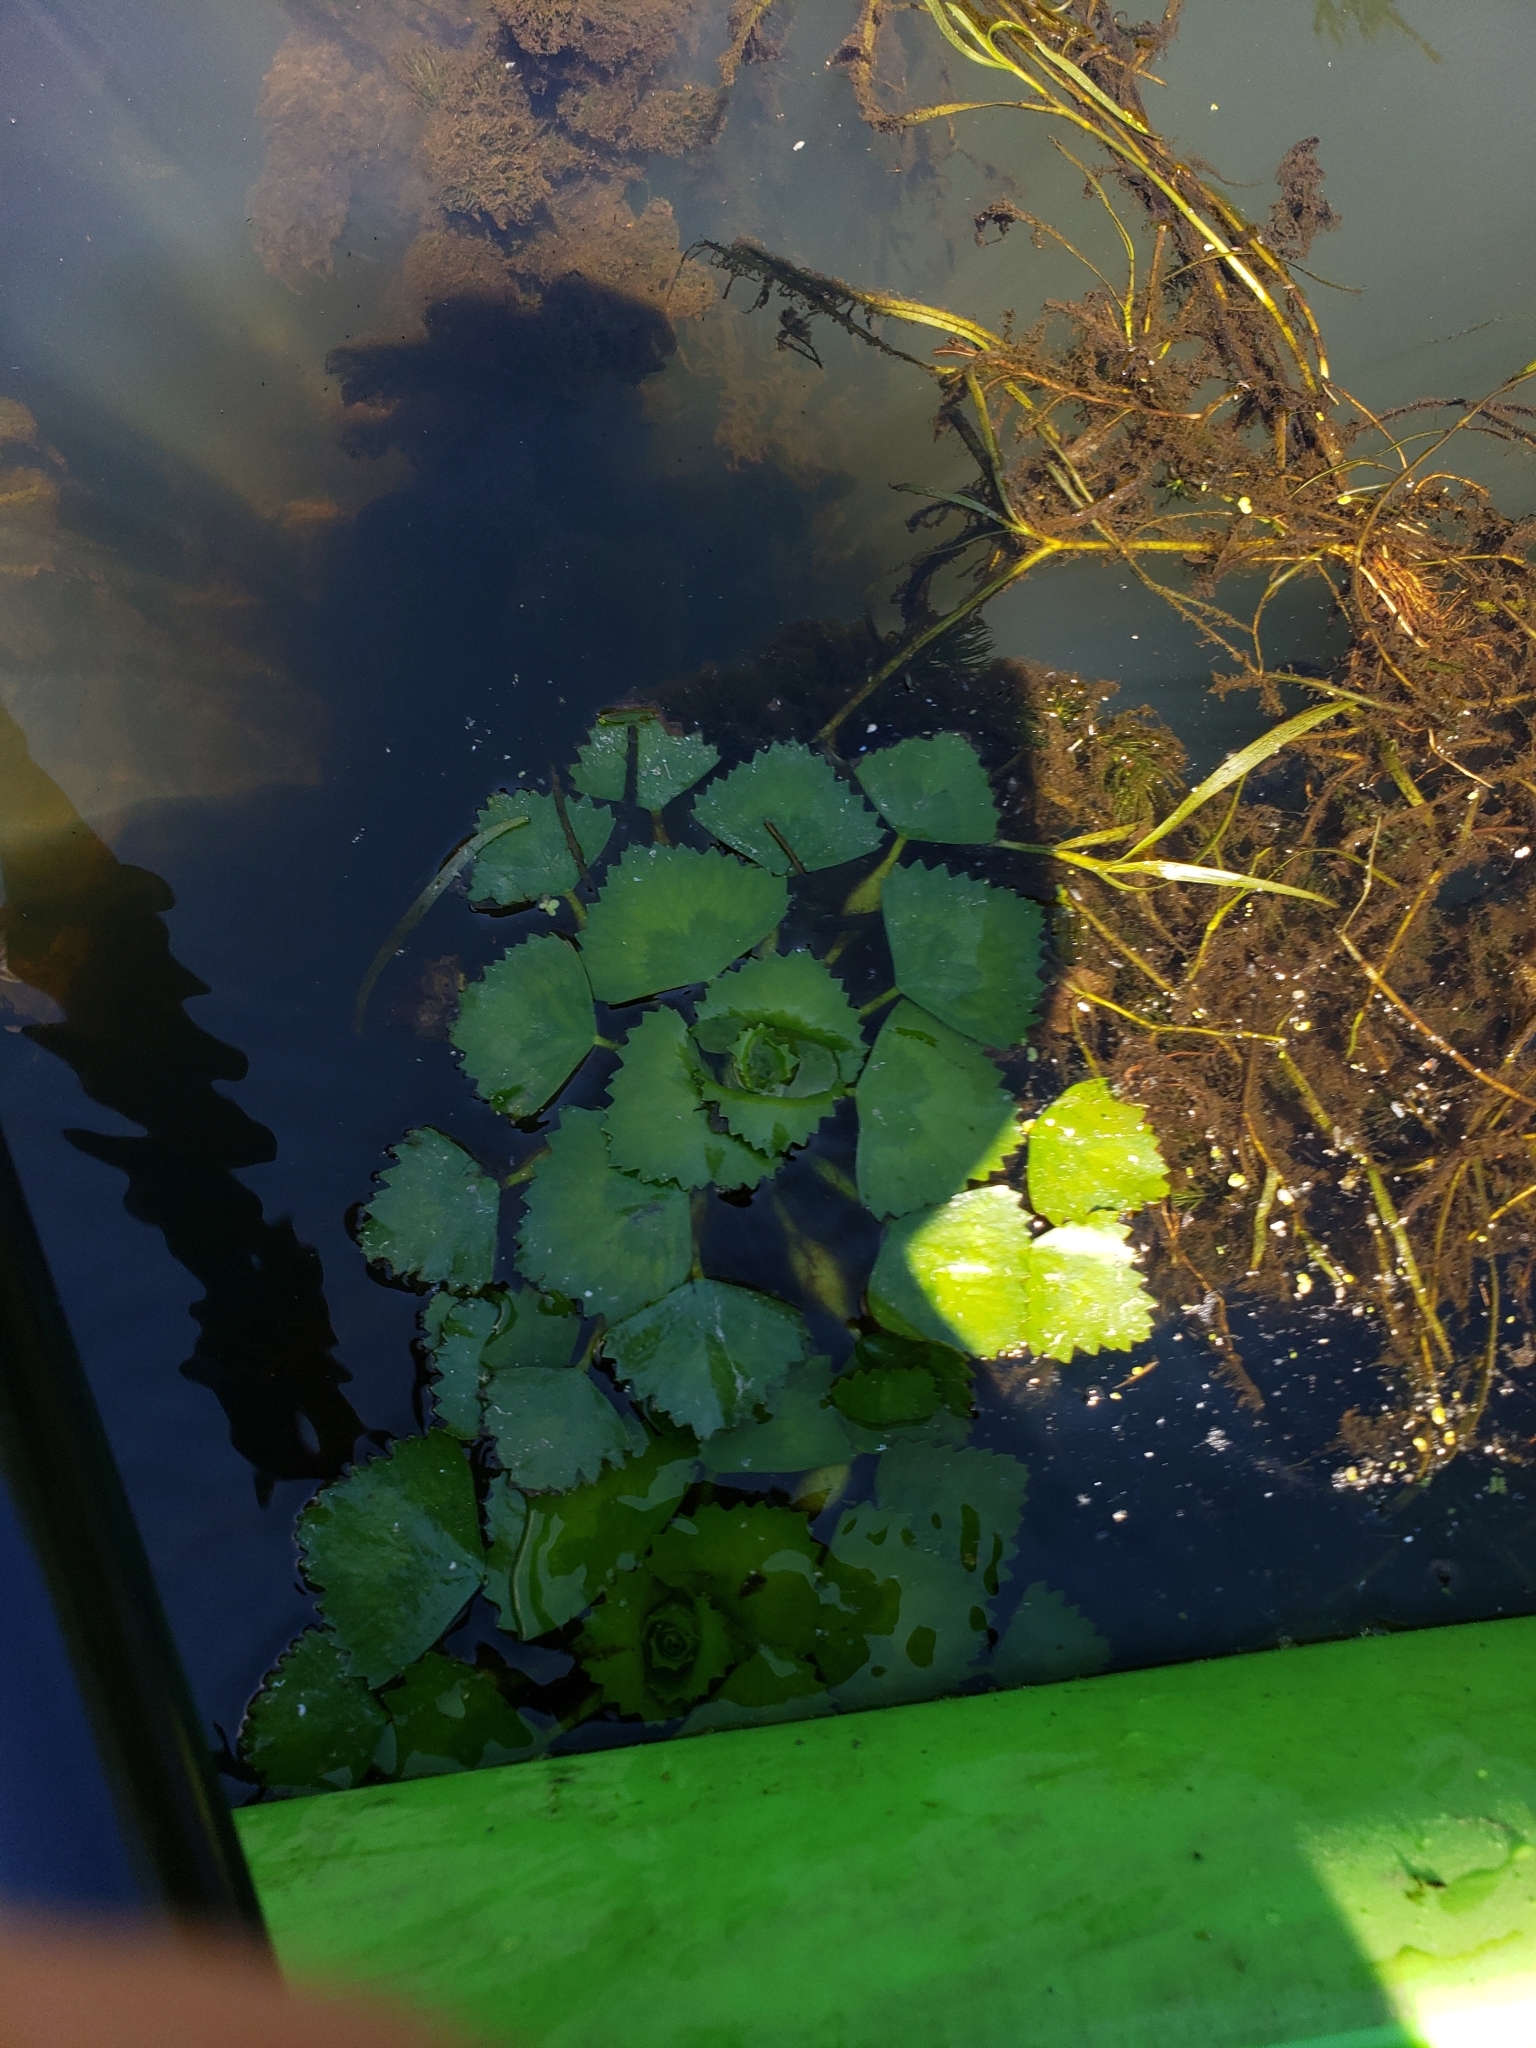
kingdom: Plantae
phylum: Tracheophyta
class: Magnoliopsida
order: Myrtales
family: Lythraceae
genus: Trapa
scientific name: Trapa natans
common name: Water chestnut
